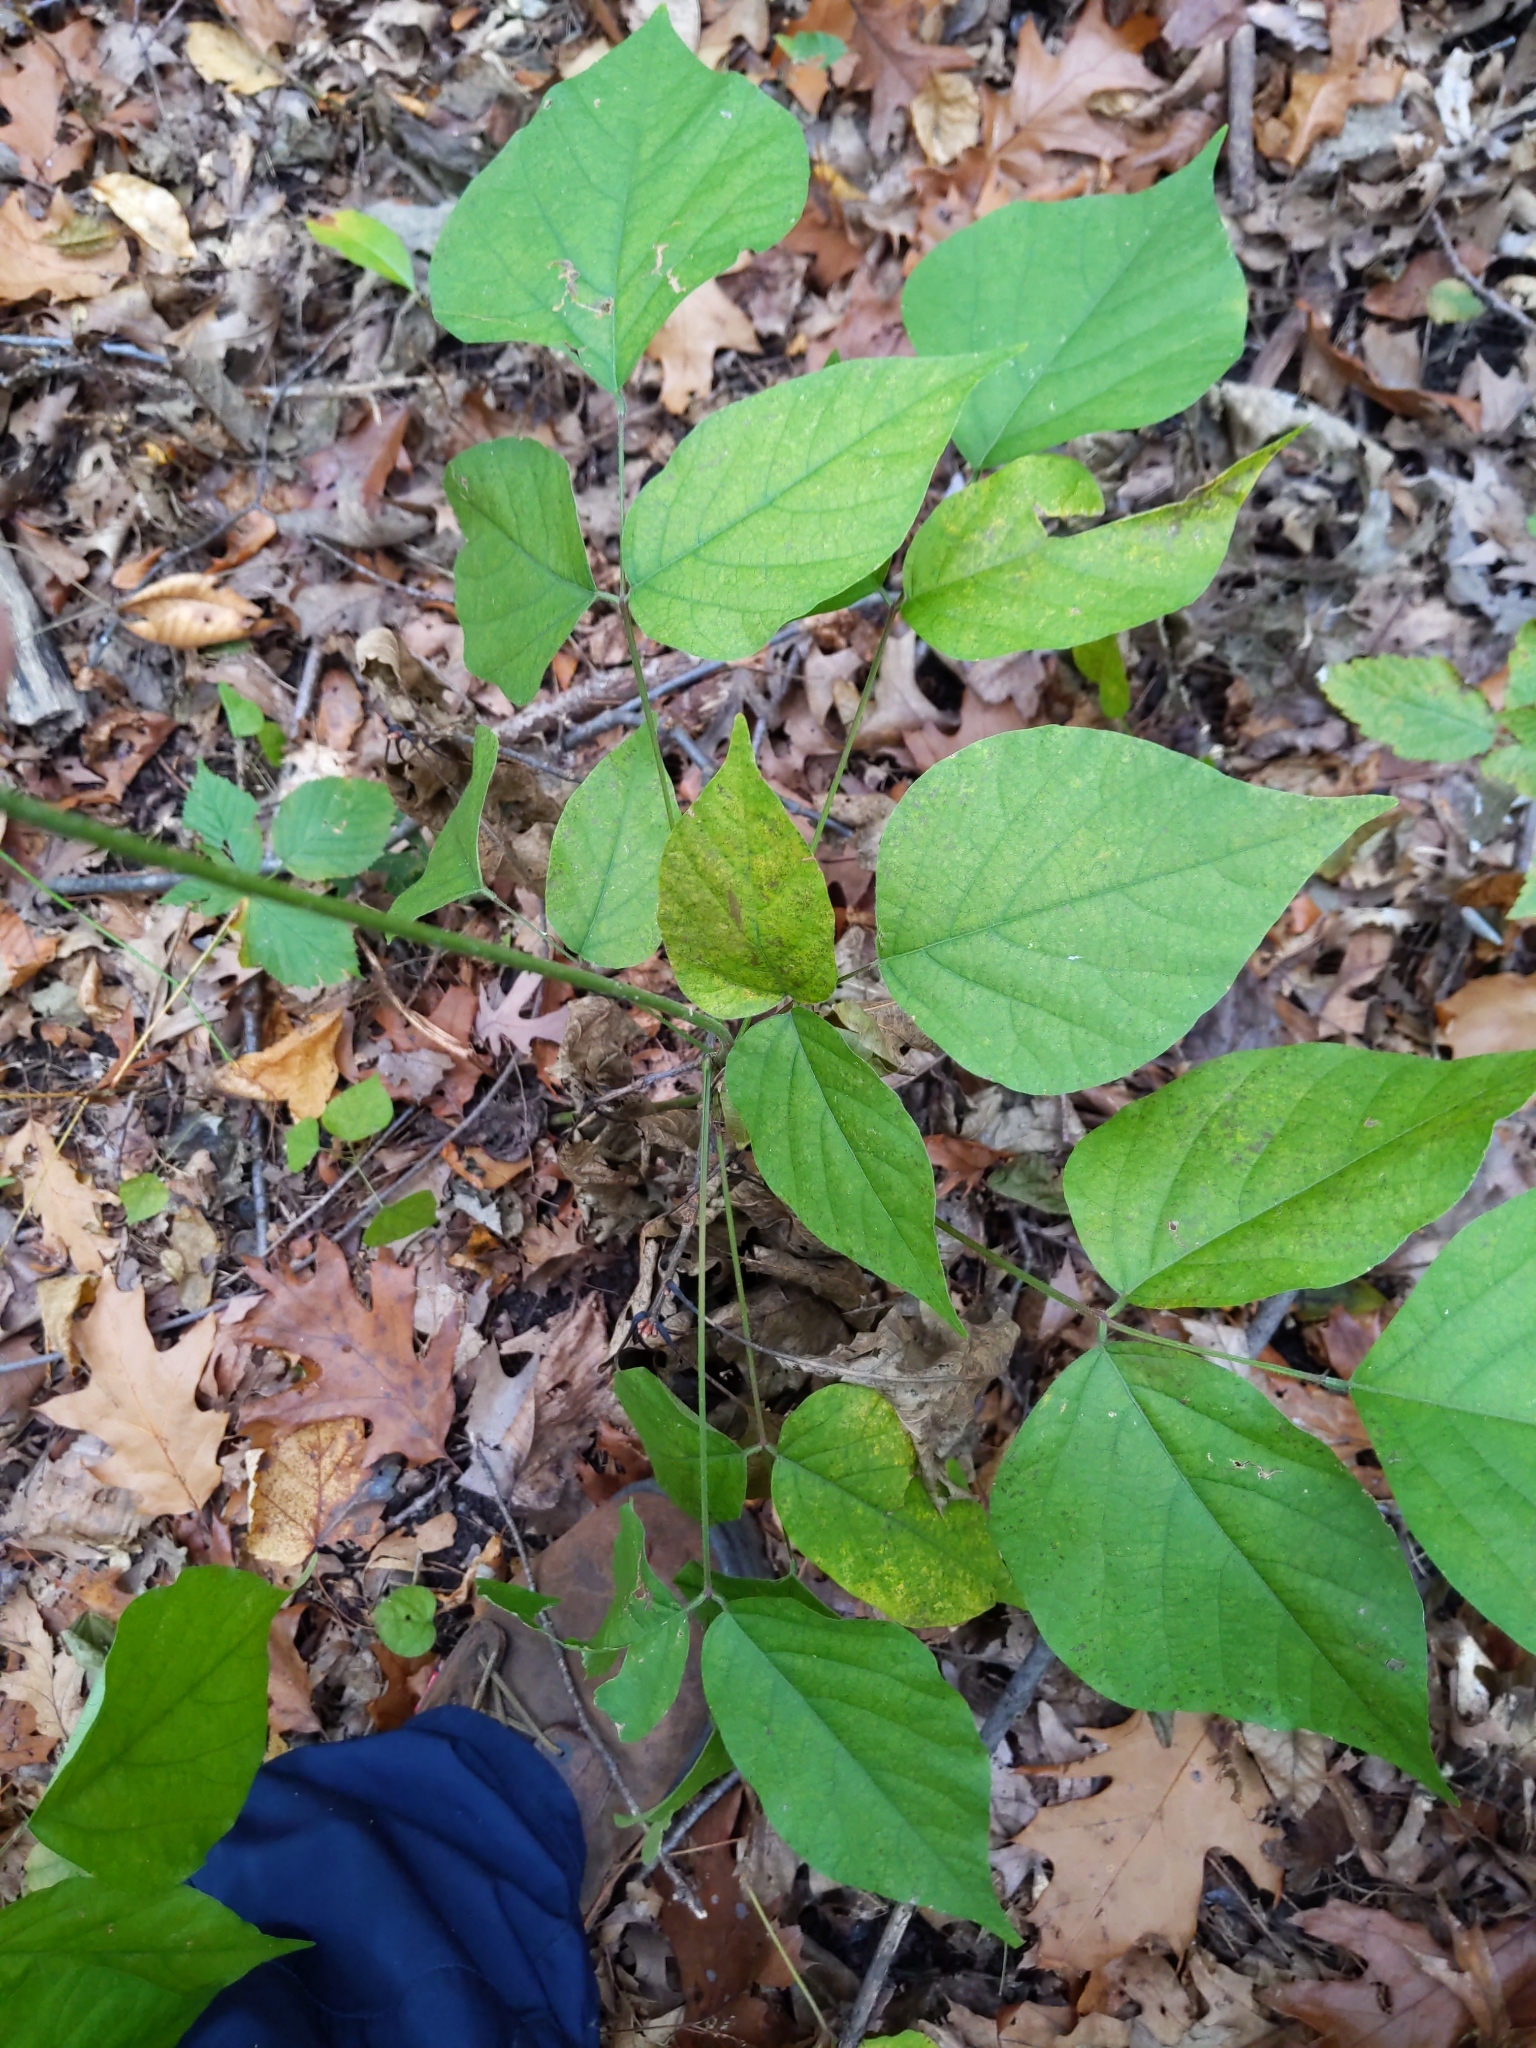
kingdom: Plantae
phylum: Tracheophyta
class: Magnoliopsida
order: Fabales
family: Fabaceae
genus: Hylodesmum
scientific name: Hylodesmum glutinosum
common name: Clustered-leaved tick-trefoil
